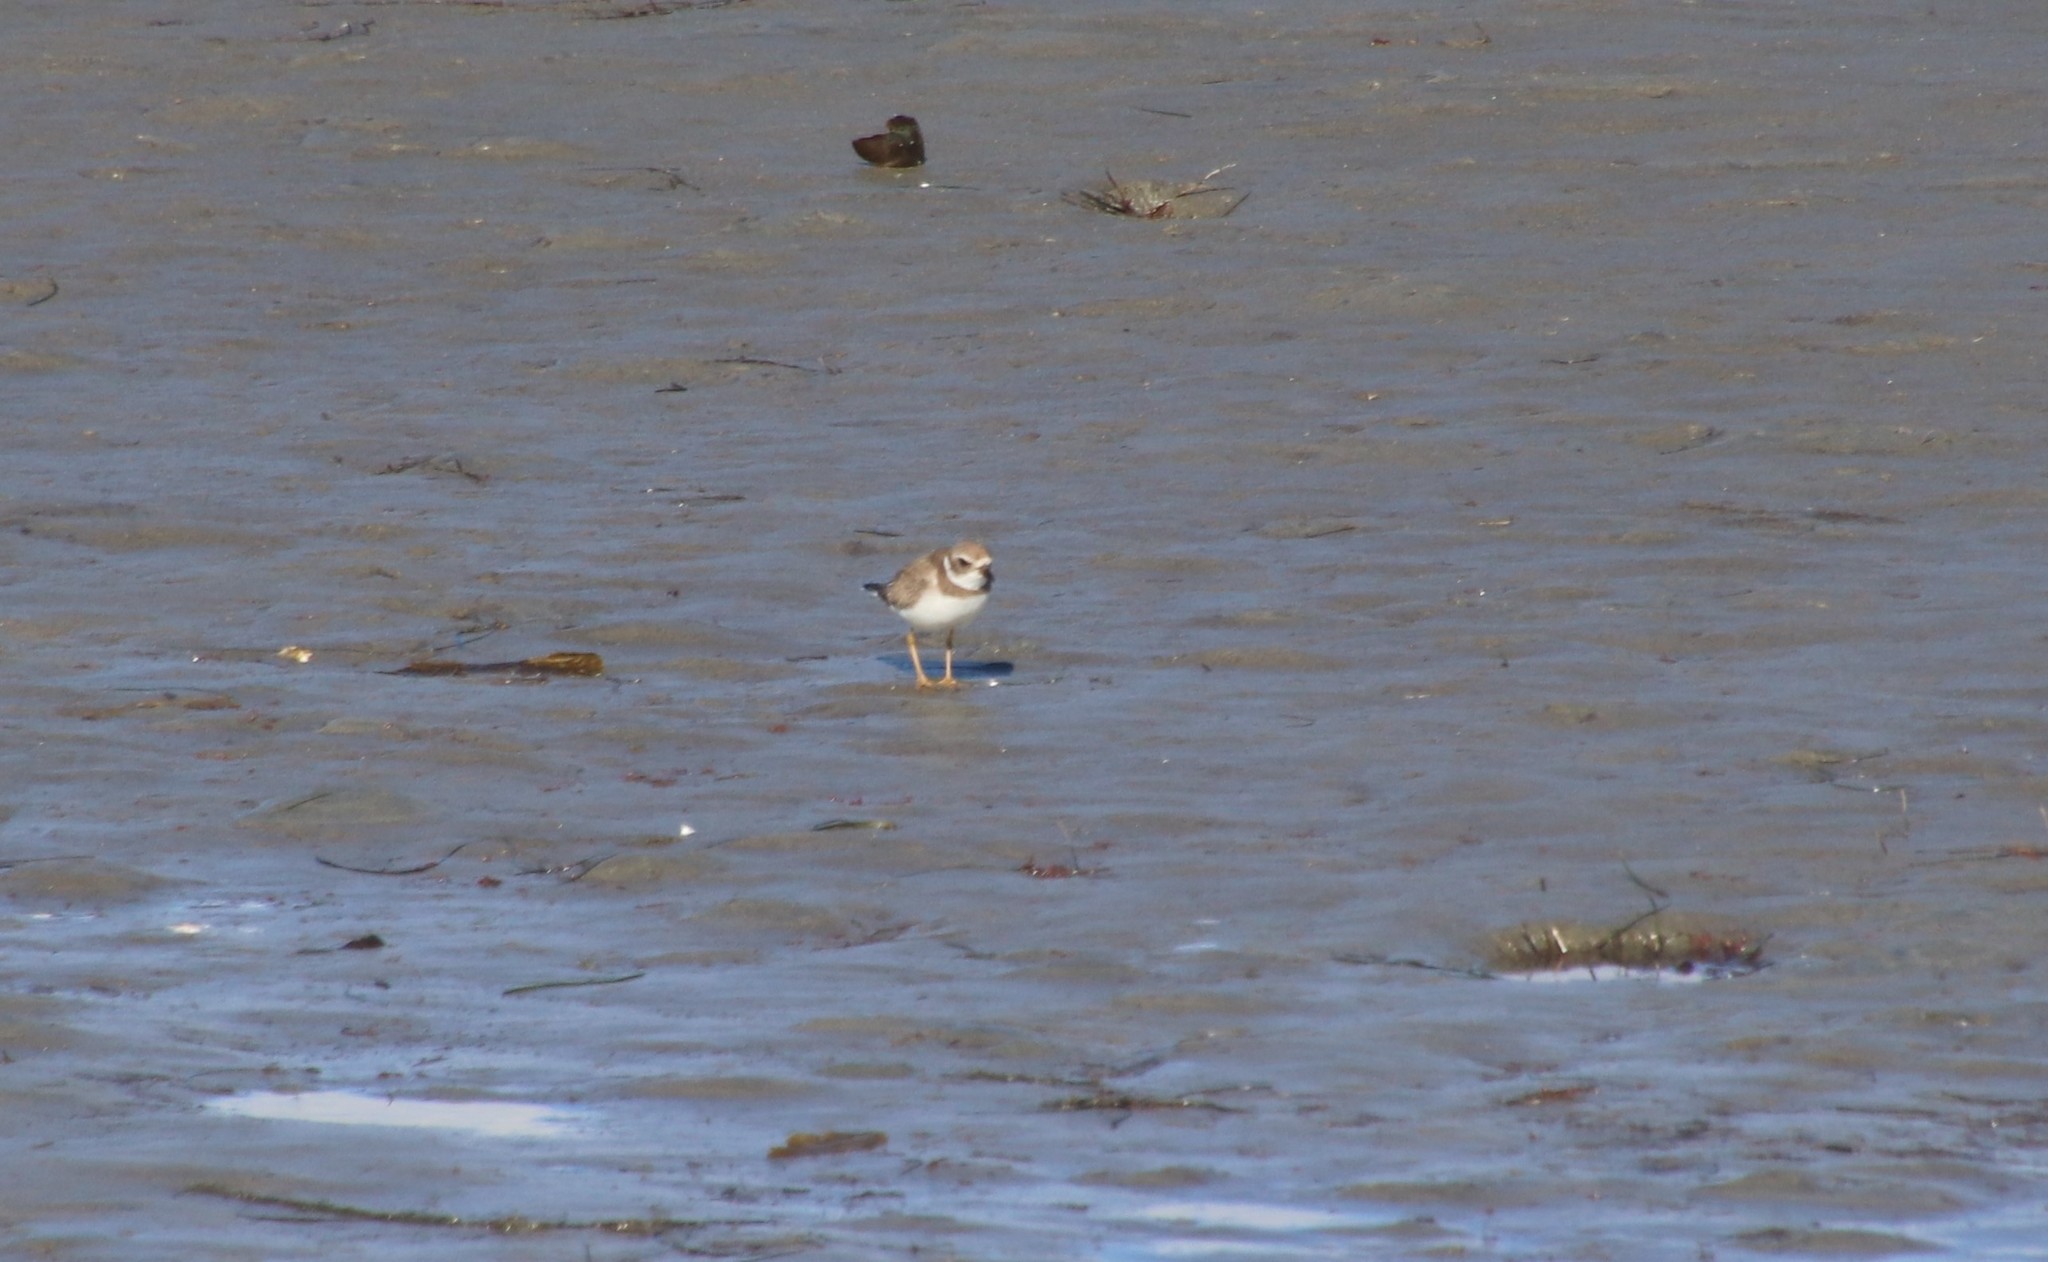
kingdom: Animalia
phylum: Chordata
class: Aves
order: Charadriiformes
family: Charadriidae
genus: Charadrius
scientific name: Charadrius semipalmatus
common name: Semipalmated plover
